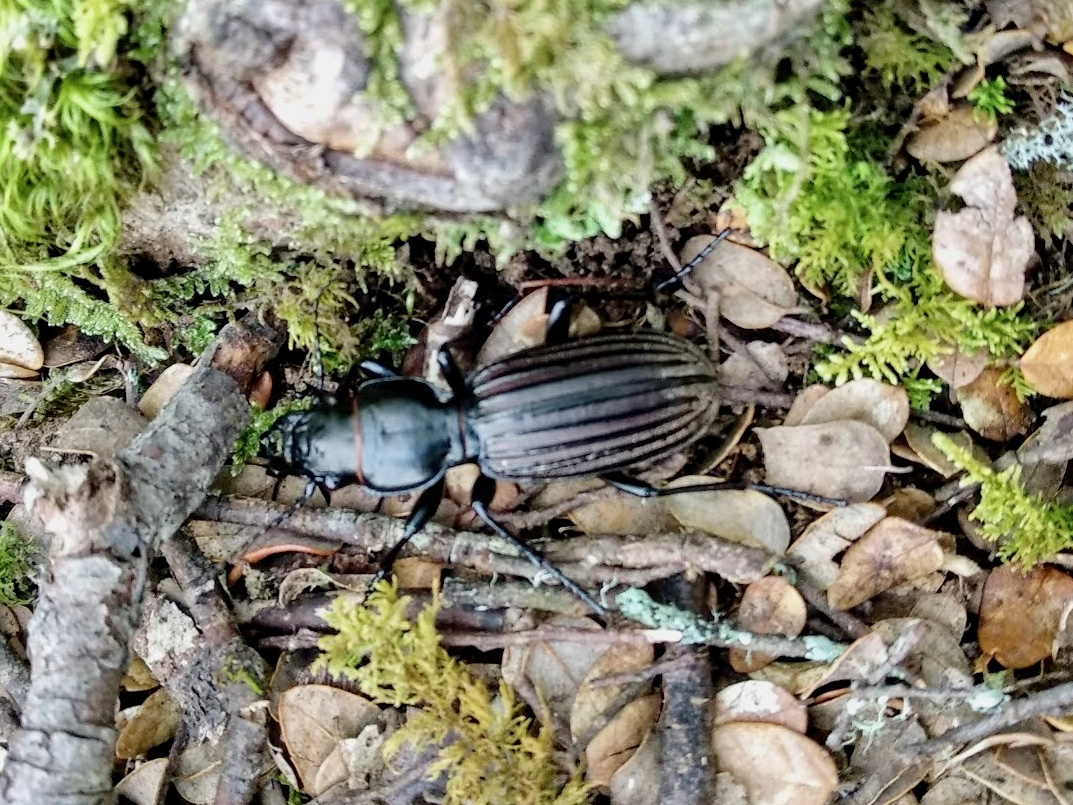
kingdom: Animalia
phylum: Arthropoda
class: Insecta
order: Coleoptera
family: Carabidae
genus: Mecodema
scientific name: Mecodema chiltoni
